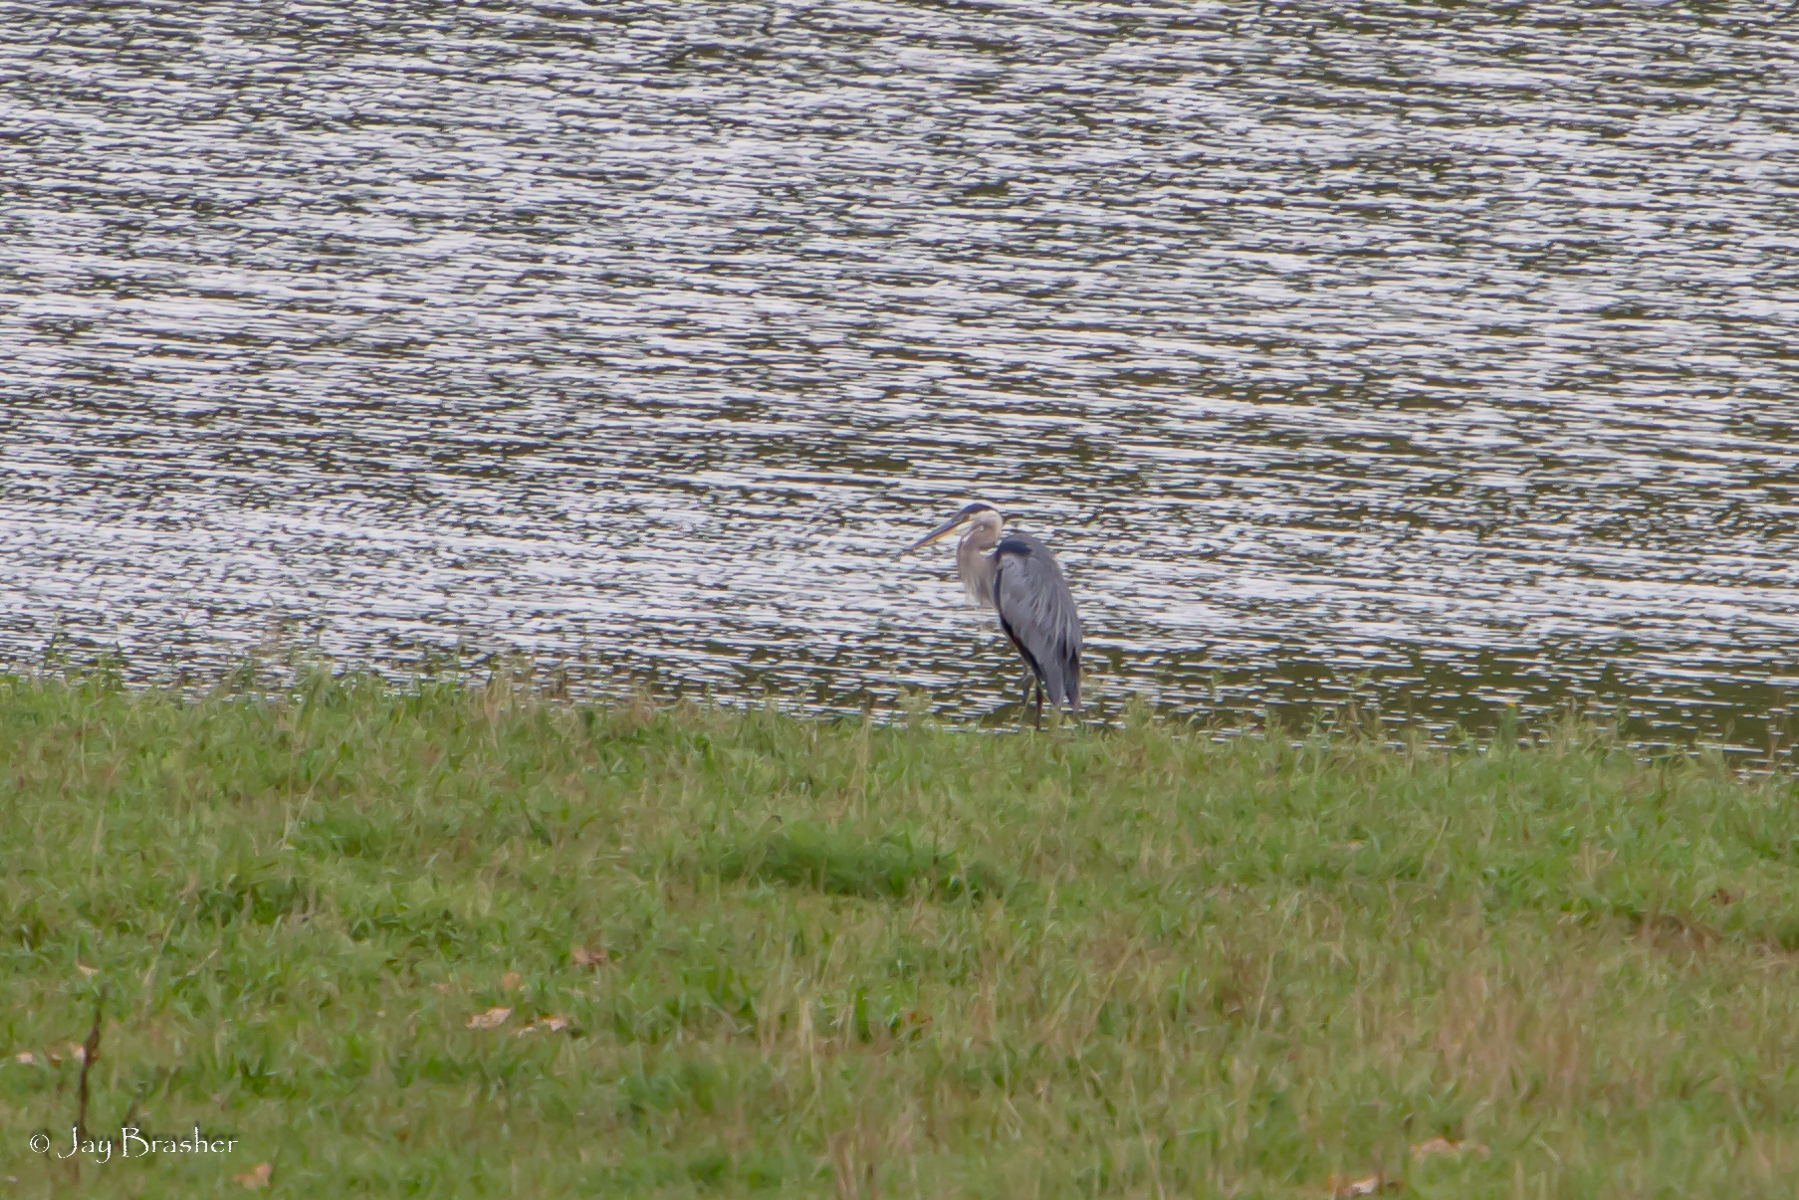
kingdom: Animalia
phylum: Chordata
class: Aves
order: Pelecaniformes
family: Ardeidae
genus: Ardea
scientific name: Ardea herodias
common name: Great blue heron
